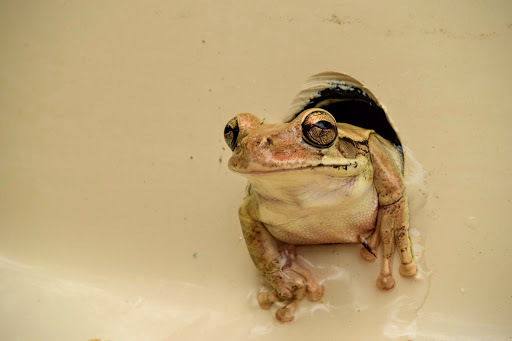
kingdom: Animalia
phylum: Chordata
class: Amphibia
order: Anura
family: Hylidae
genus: Smilisca
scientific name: Smilisca baudinii
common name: Mexican smilisca
